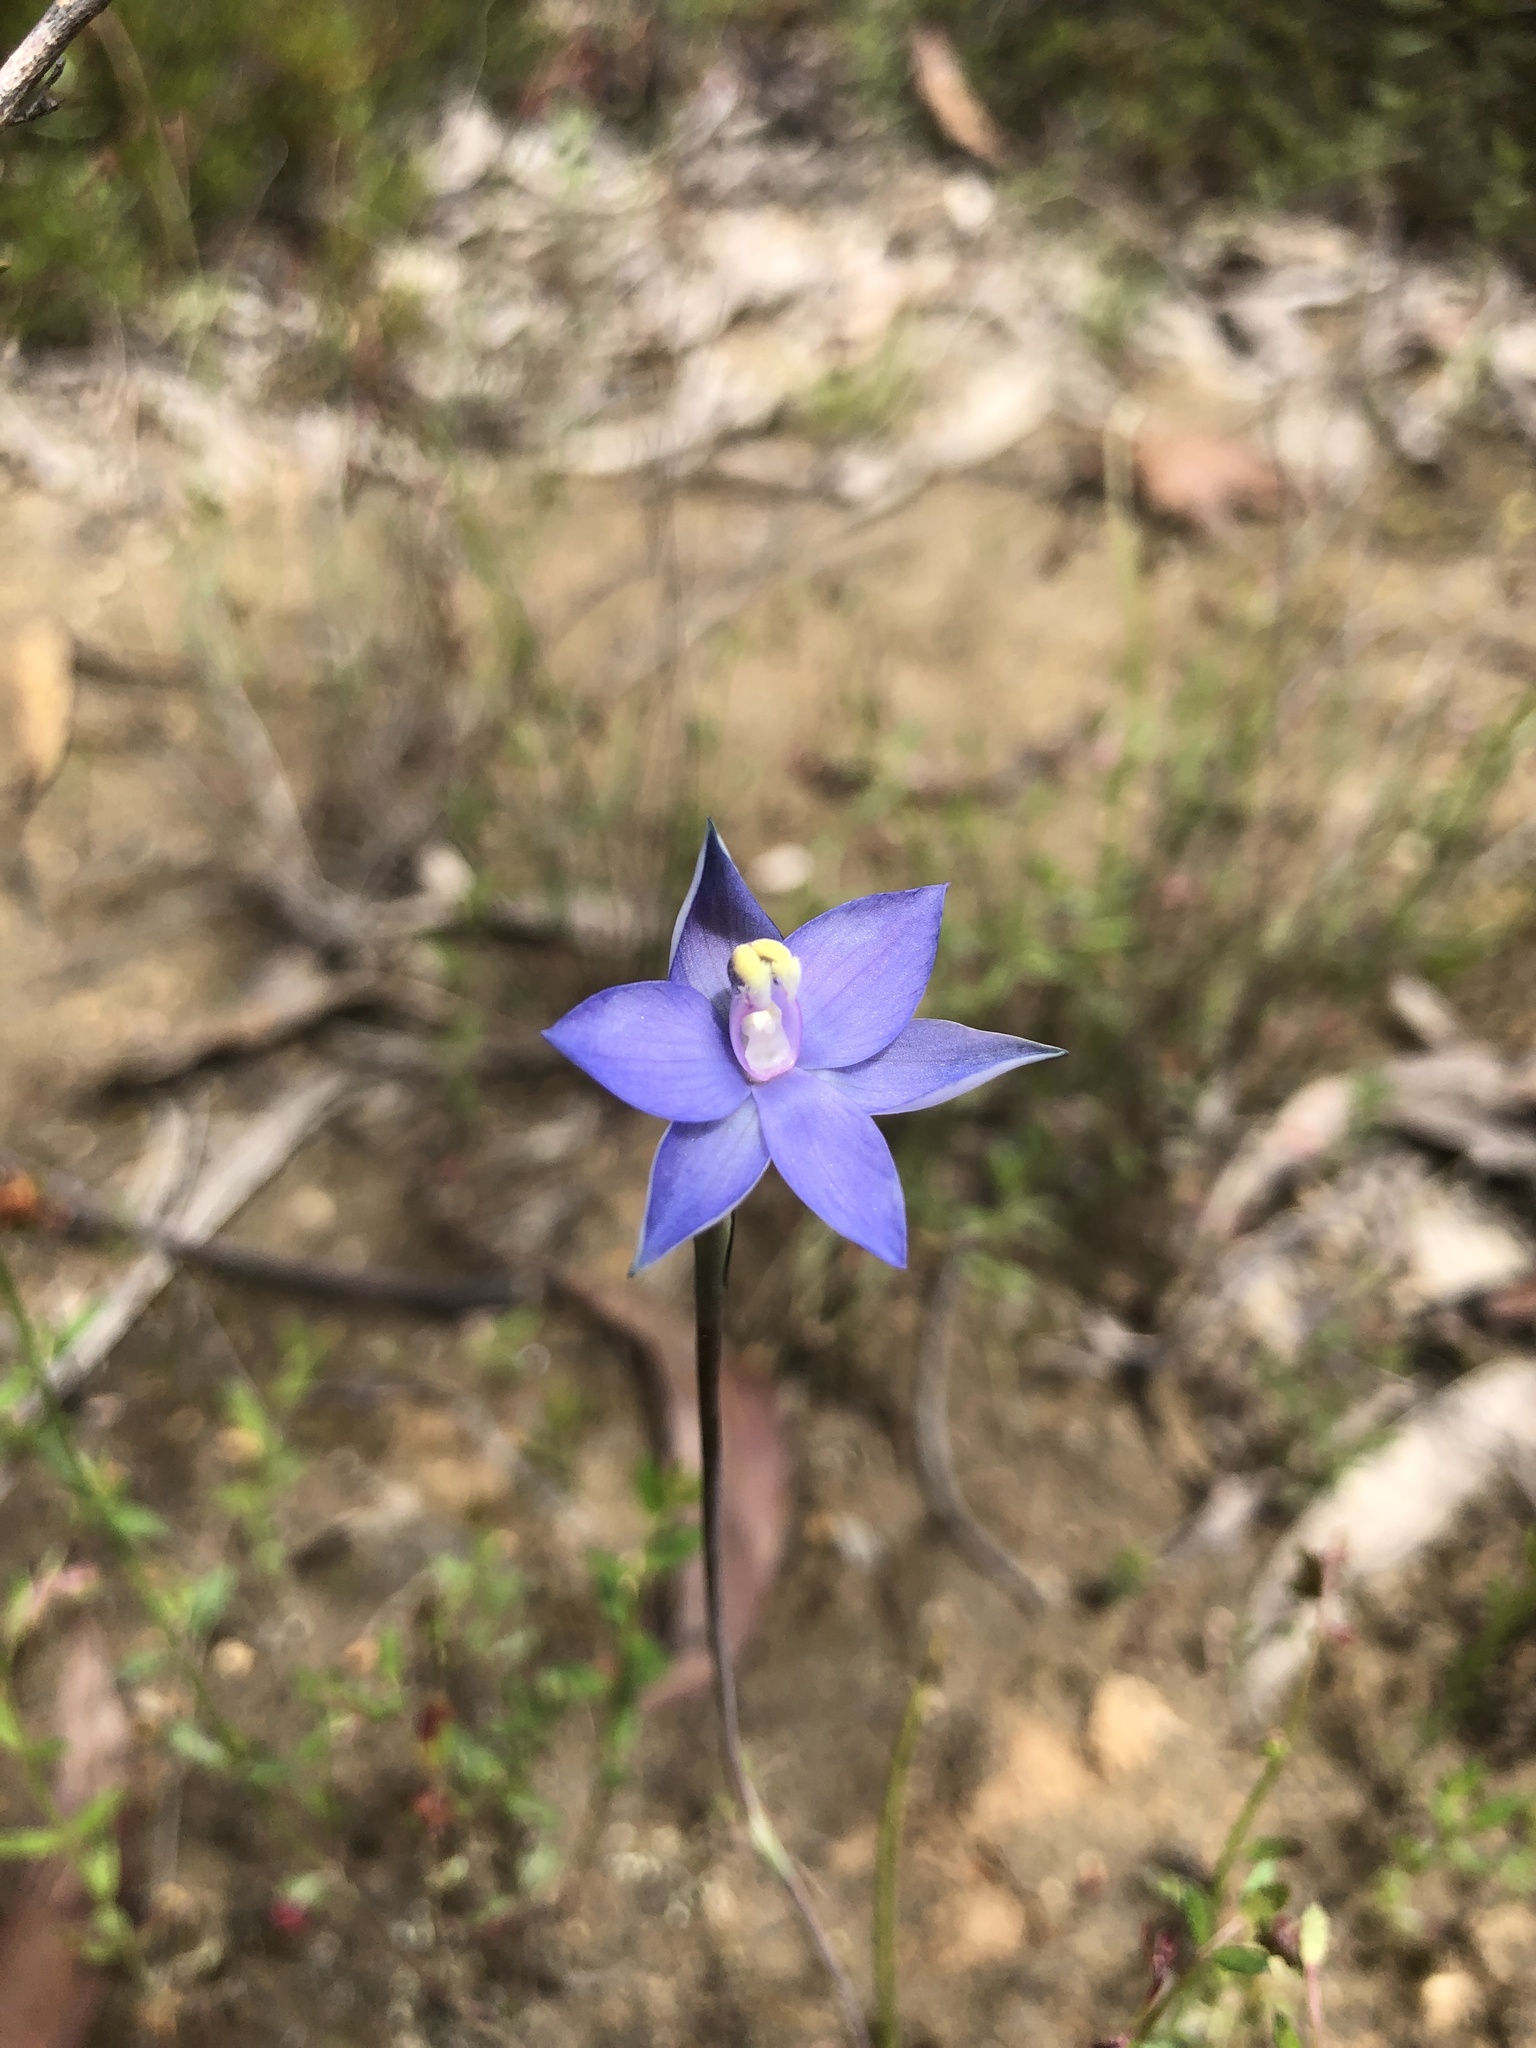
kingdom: Plantae
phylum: Tracheophyta
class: Liliopsida
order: Asparagales
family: Orchidaceae
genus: Thelymitra
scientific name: Thelymitra inflata
